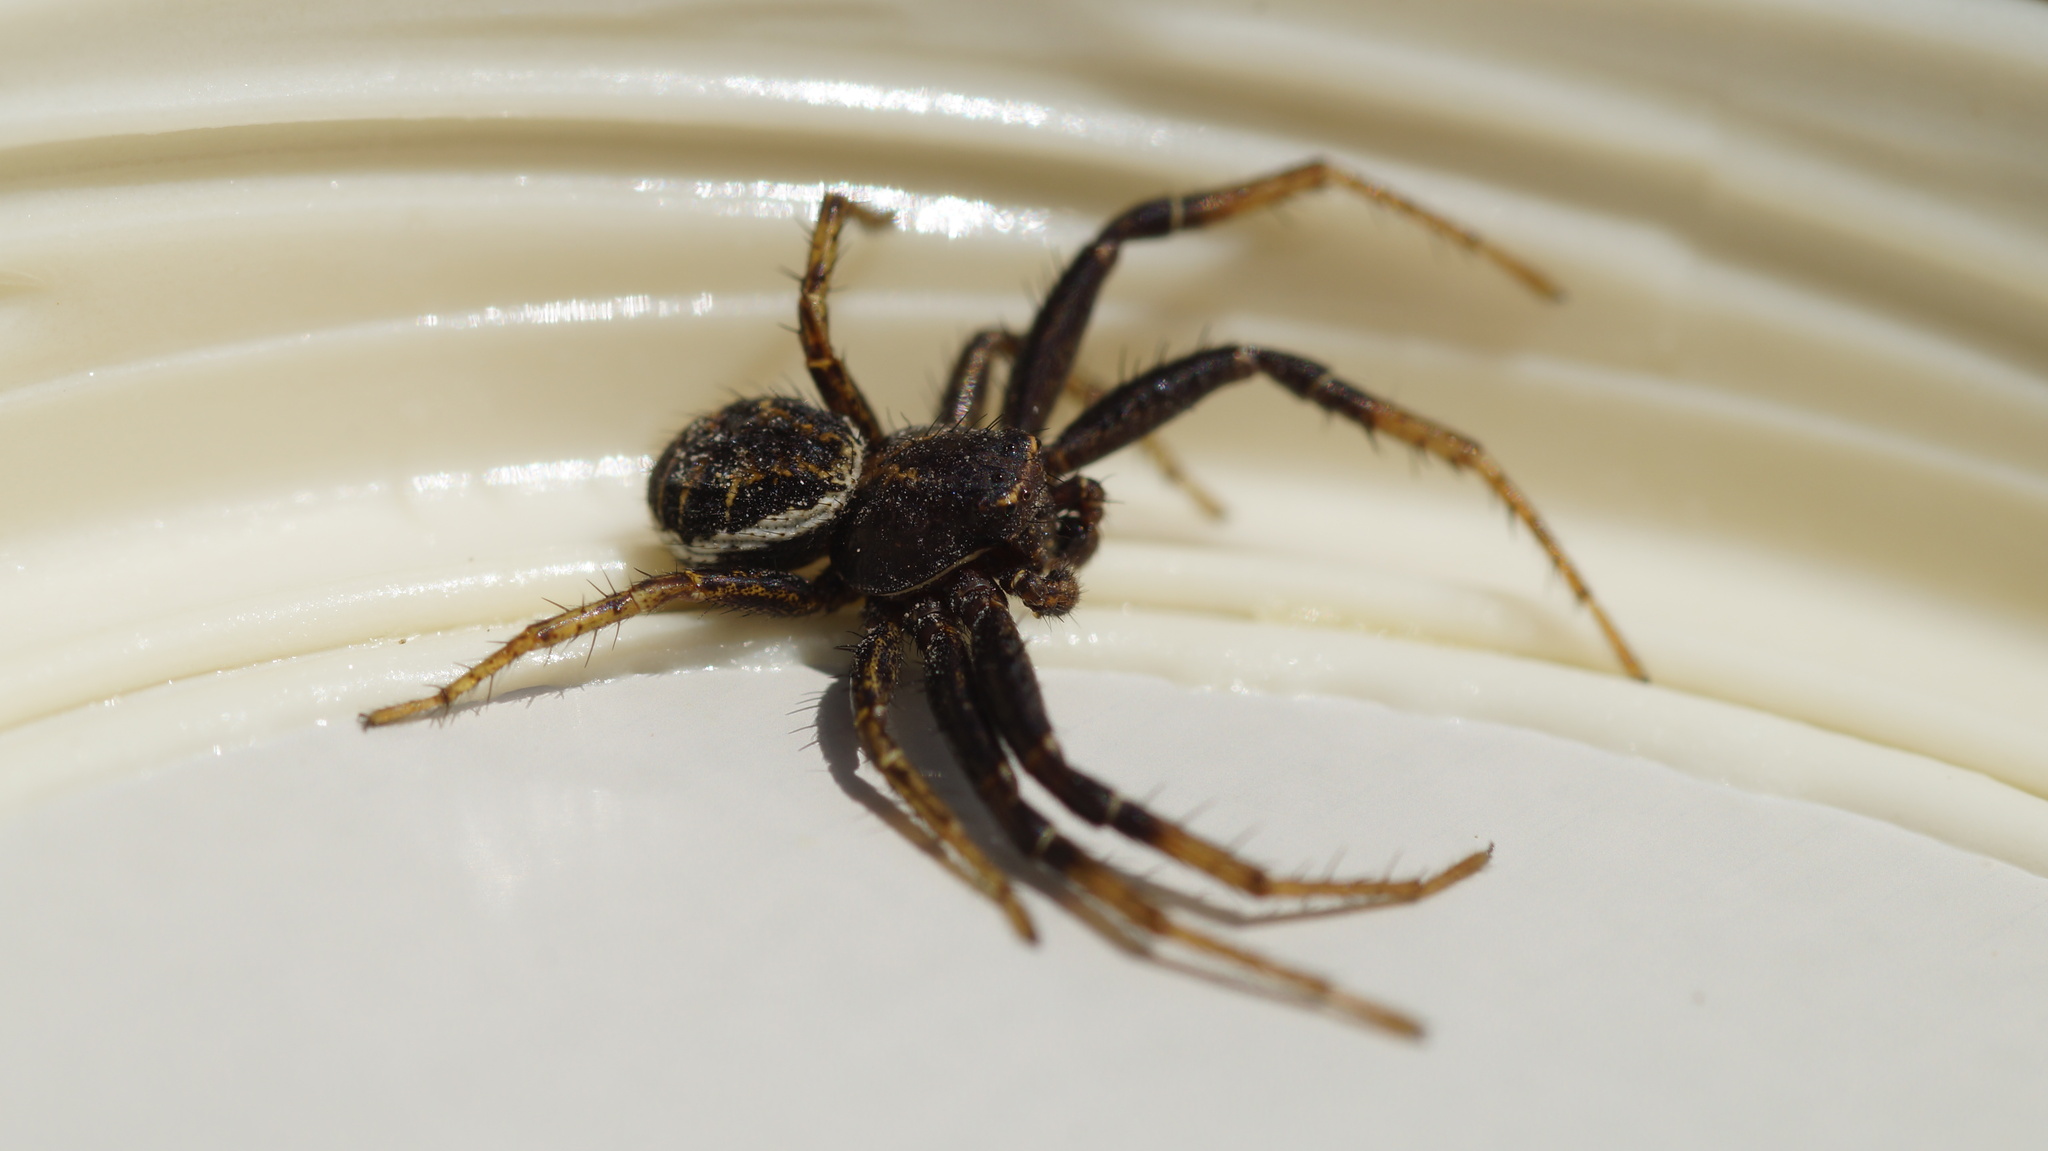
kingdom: Animalia
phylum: Arthropoda
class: Arachnida
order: Araneae
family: Thomisidae
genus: Xysticus
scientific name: Xysticus kochi
